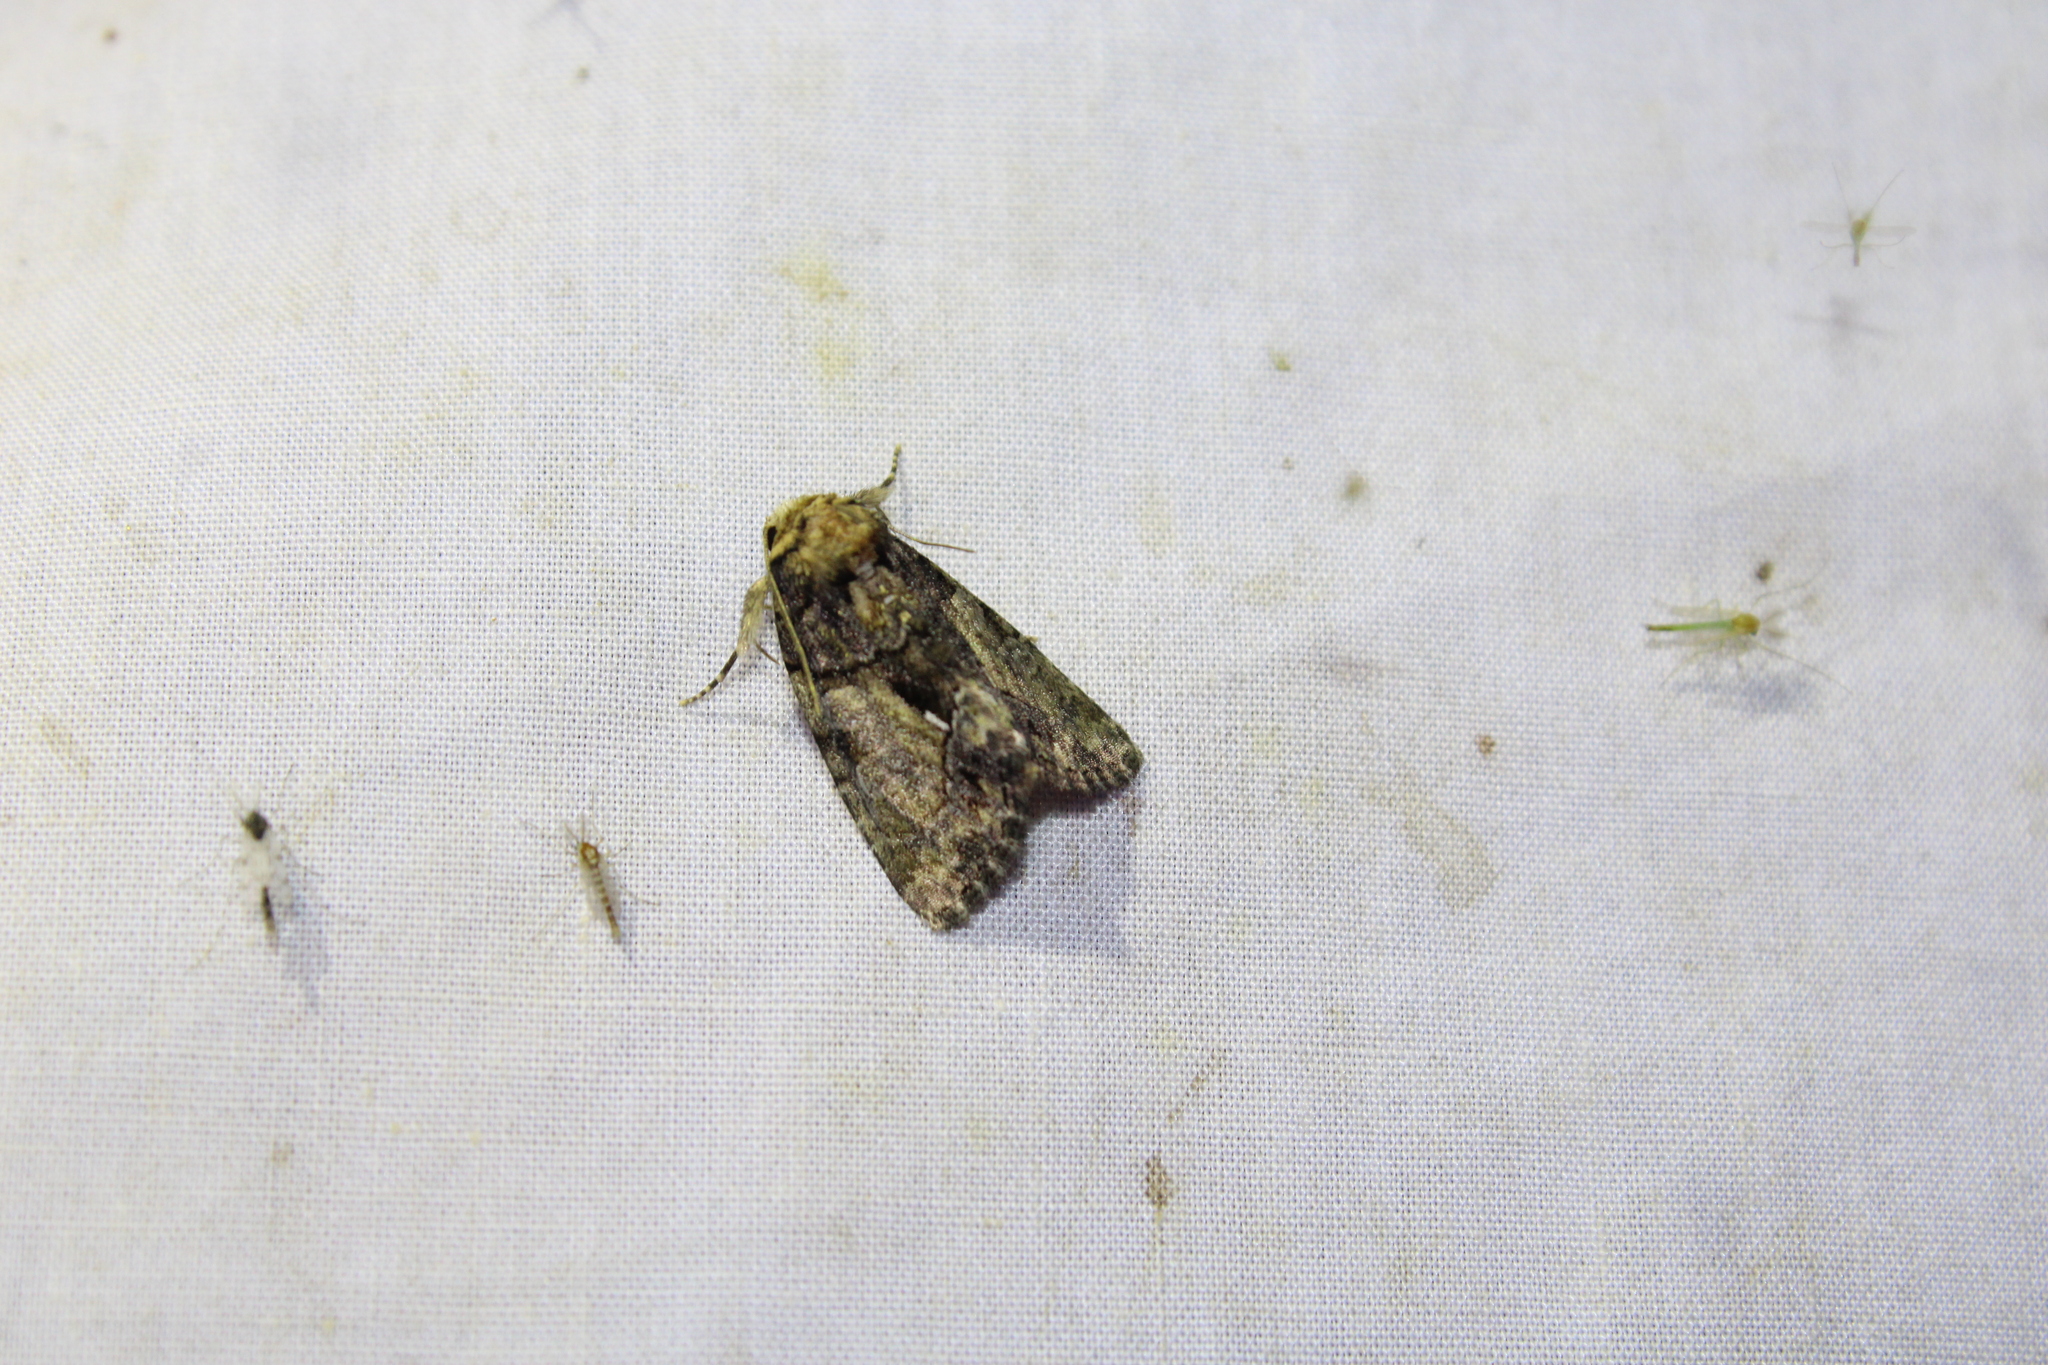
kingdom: Animalia
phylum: Arthropoda
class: Insecta
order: Lepidoptera
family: Noctuidae
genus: Chytonix
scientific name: Chytonix palliatricula
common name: Cloaked marvel
